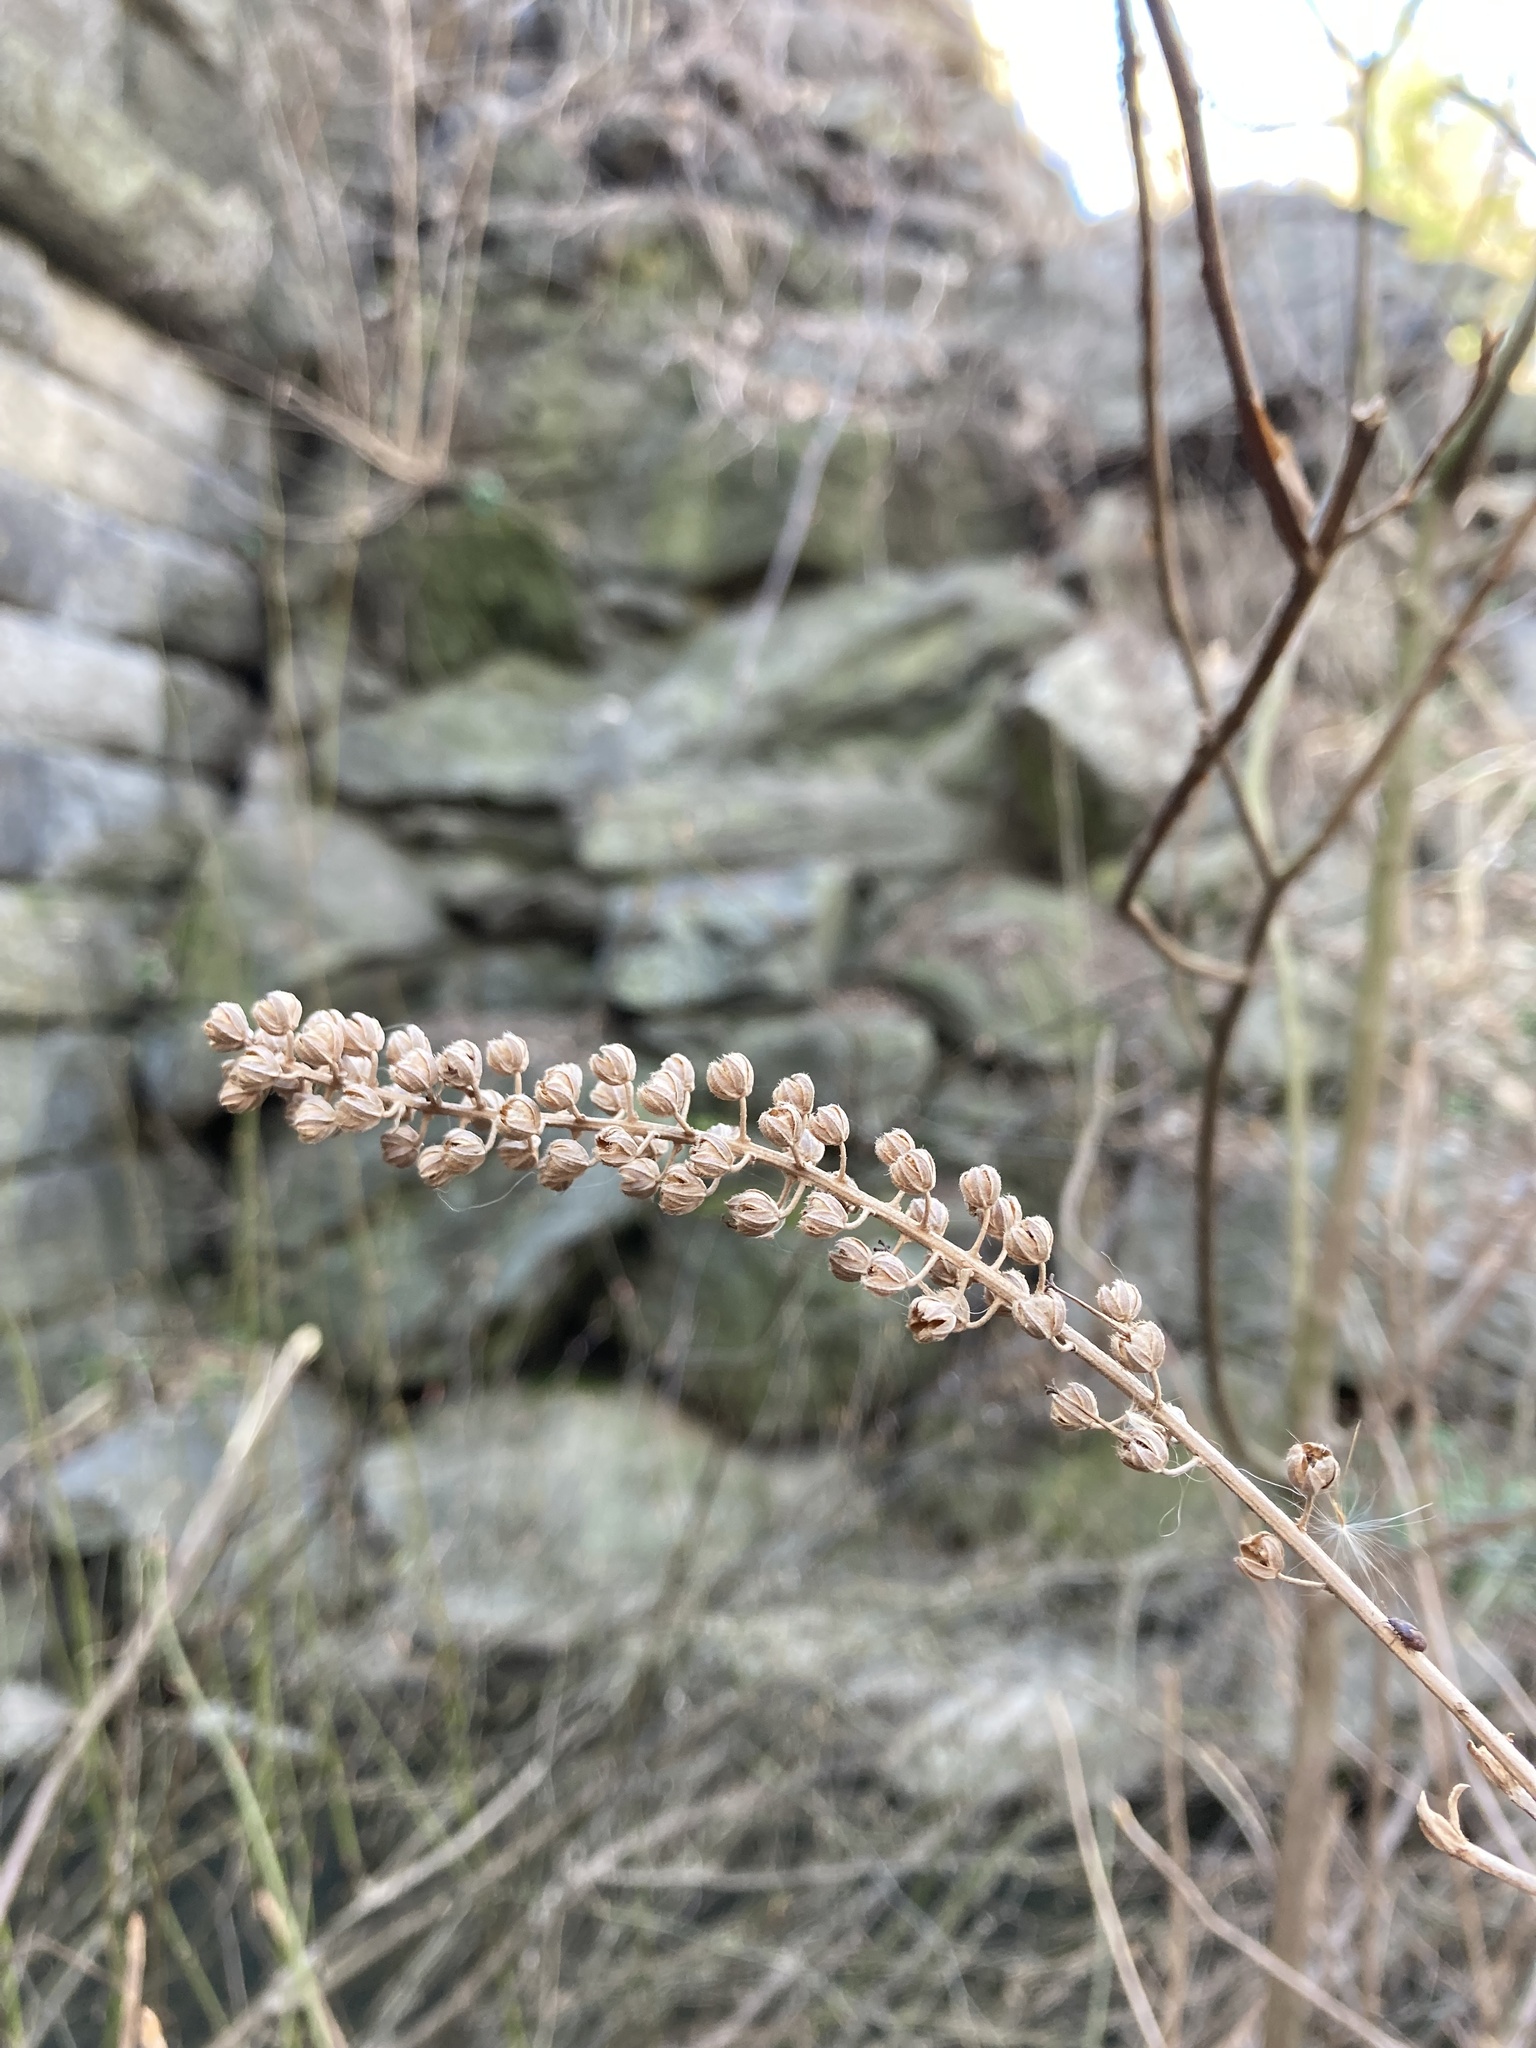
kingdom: Plantae
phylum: Tracheophyta
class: Magnoliopsida
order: Ericales
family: Clethraceae
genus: Clethra
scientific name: Clethra alnifolia
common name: Sweet pepperbush
